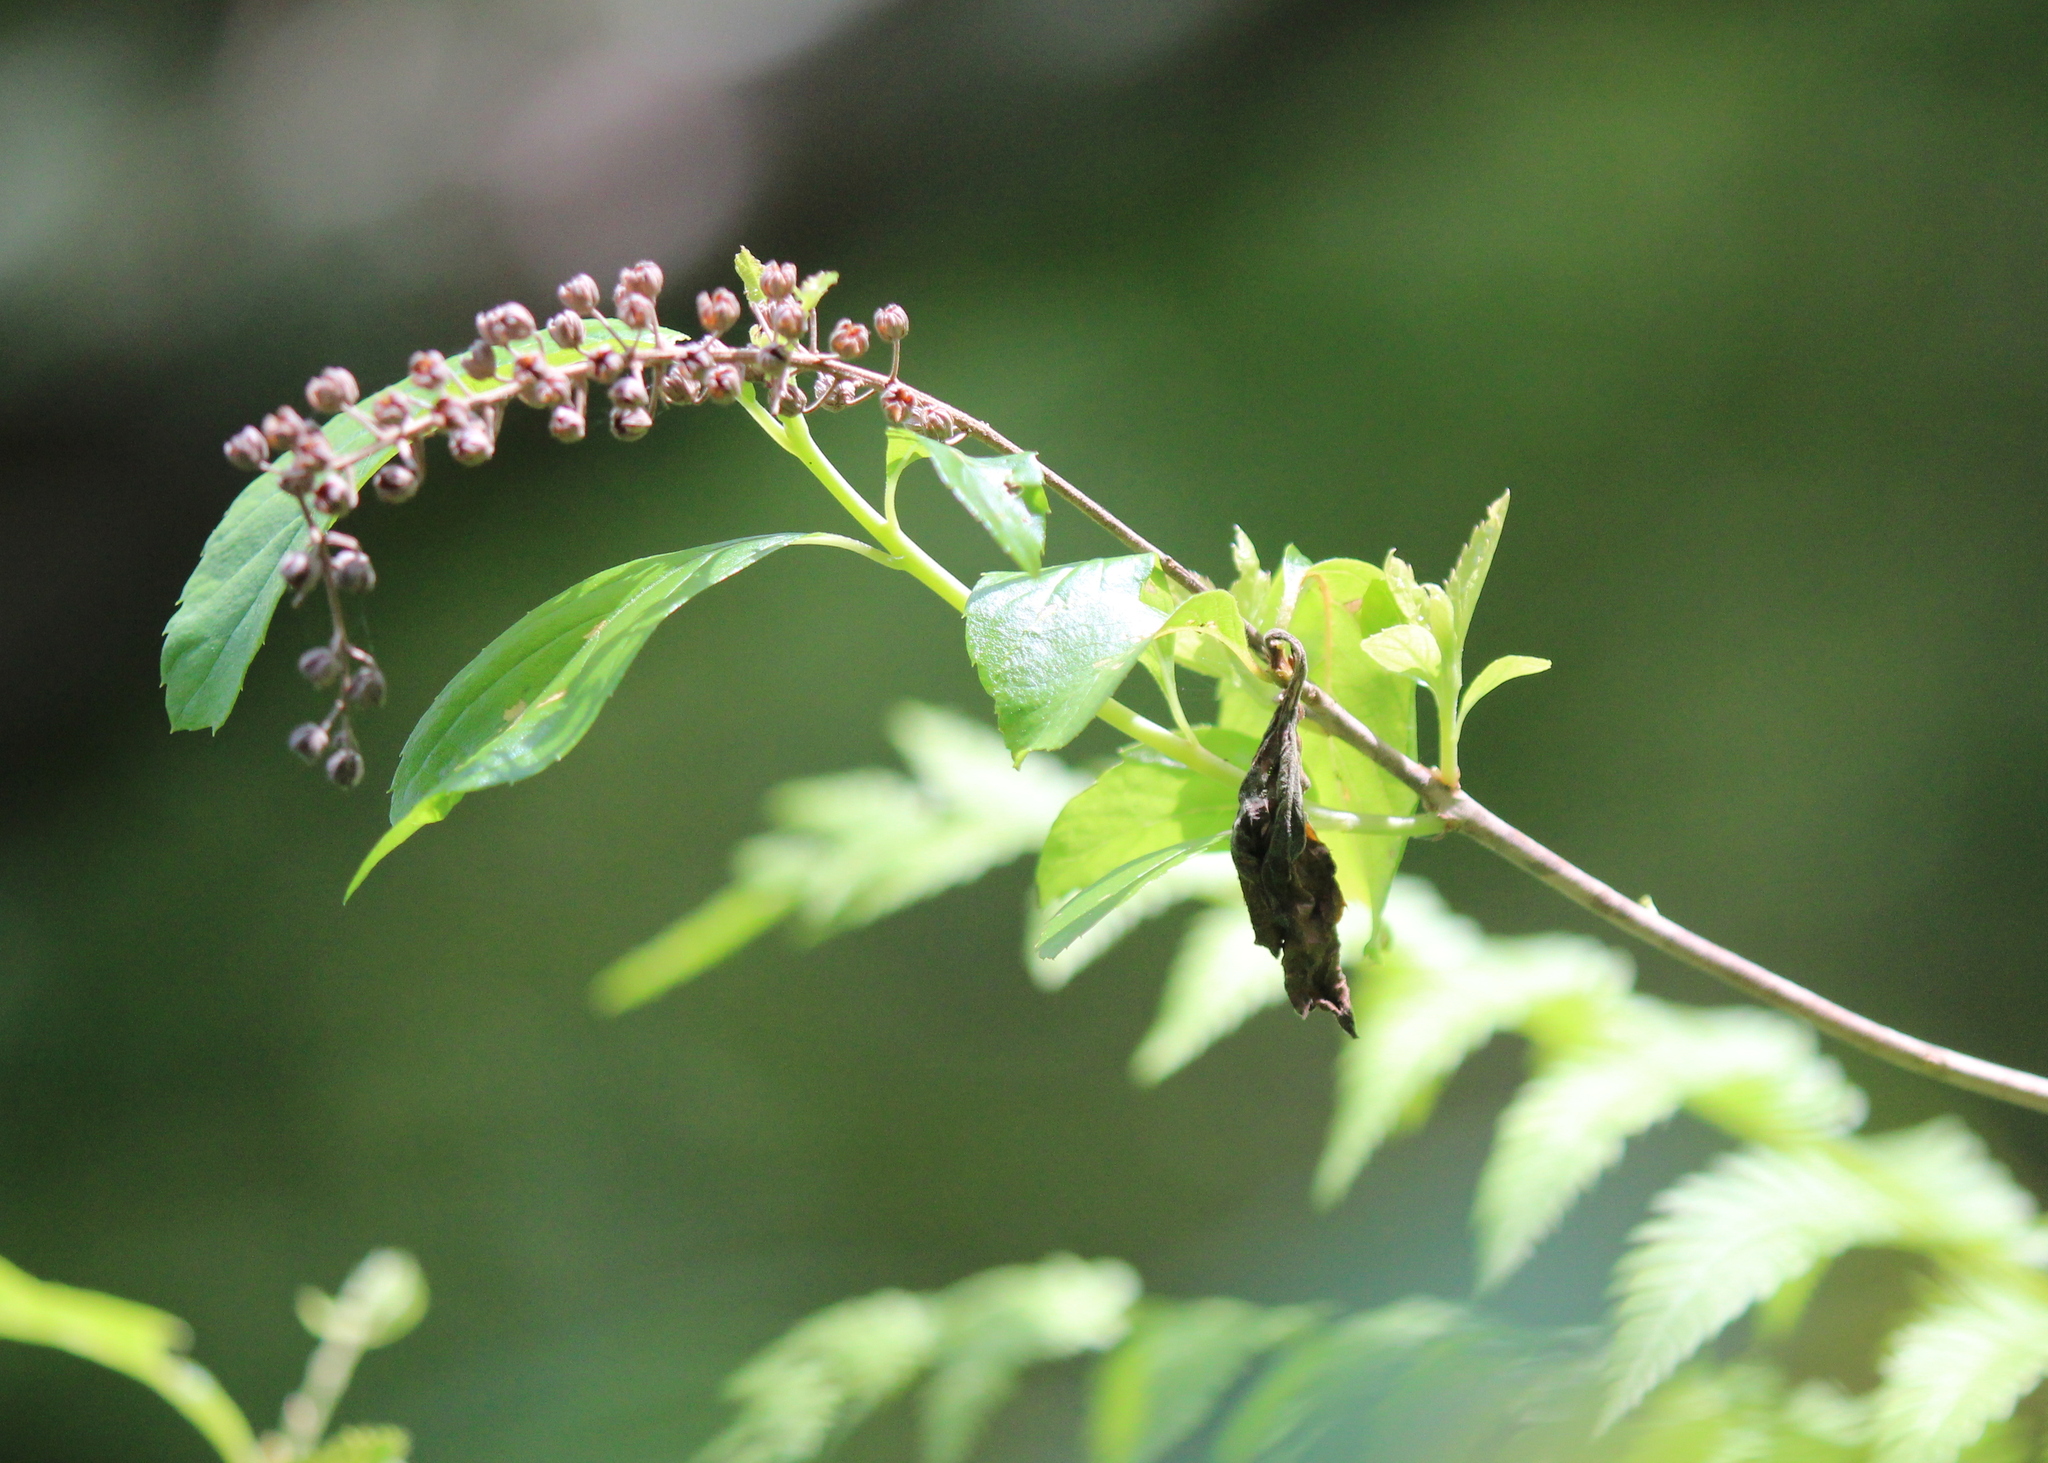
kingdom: Plantae
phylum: Tracheophyta
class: Magnoliopsida
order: Ericales
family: Clethraceae
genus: Clethra
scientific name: Clethra alnifolia
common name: Sweet pepperbush
